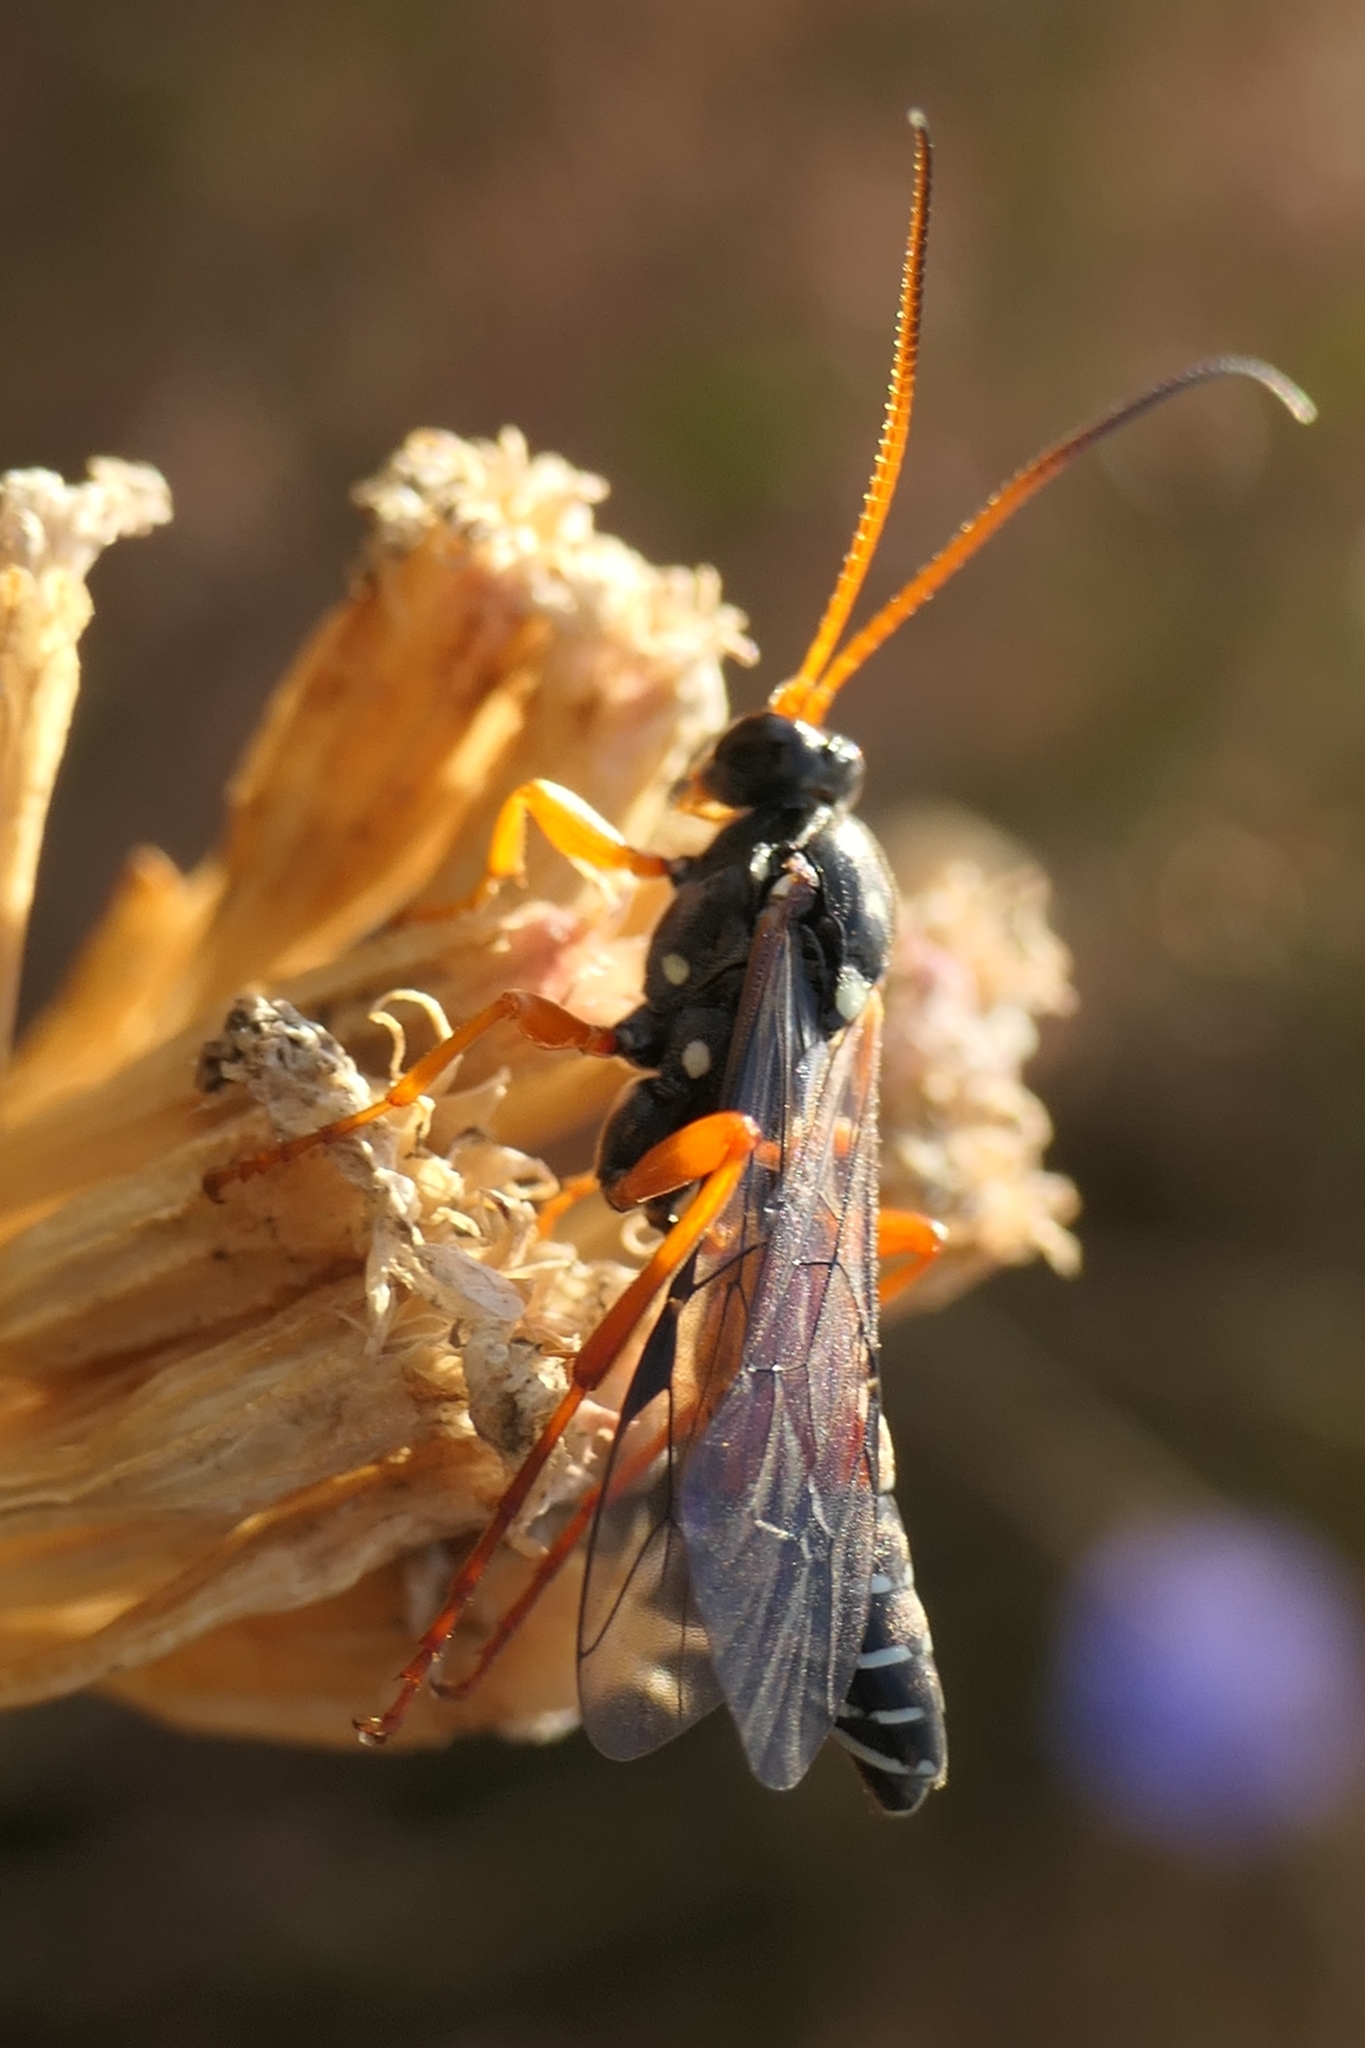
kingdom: Animalia
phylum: Arthropoda
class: Insecta
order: Hymenoptera
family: Ichneumonidae
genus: Eutanyacra
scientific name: Eutanyacra licitatoria
